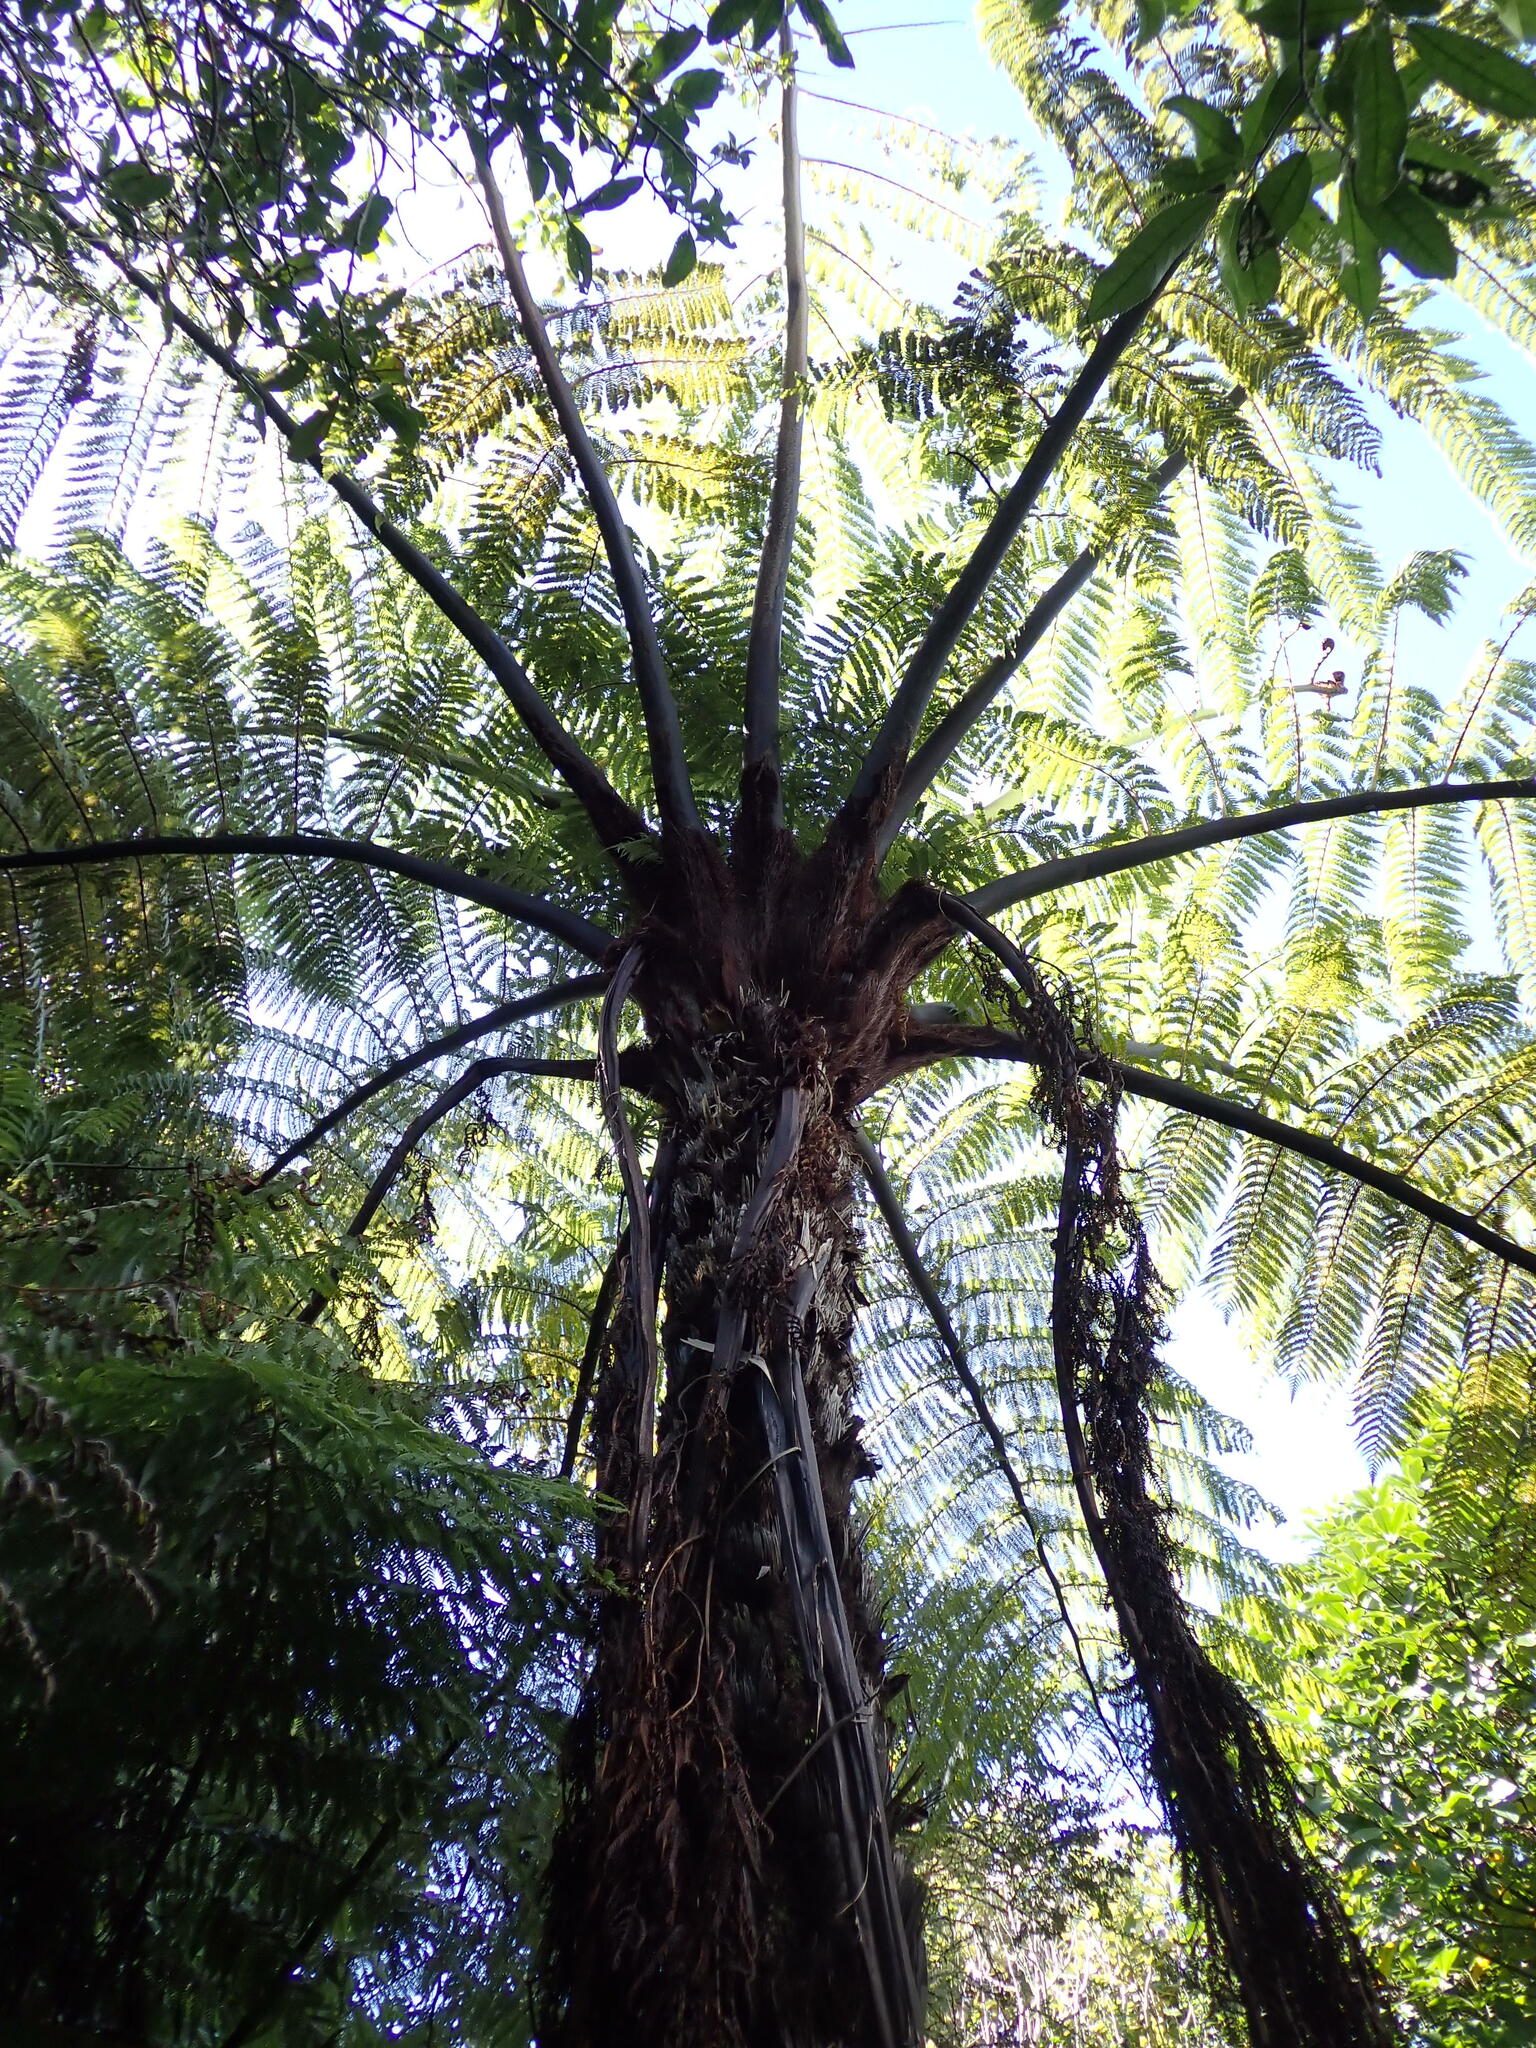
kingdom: Plantae
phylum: Tracheophyta
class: Polypodiopsida
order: Cyatheales
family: Cyatheaceae
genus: Sphaeropteris
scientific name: Sphaeropteris medullaris
